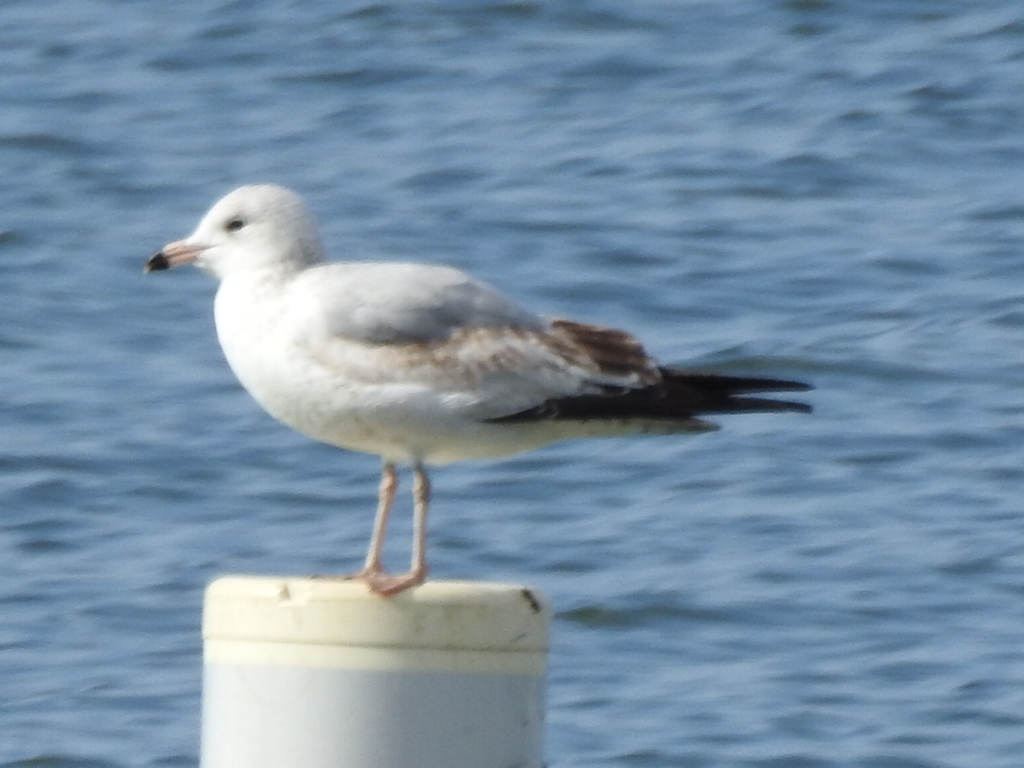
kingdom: Animalia
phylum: Chordata
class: Aves
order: Charadriiformes
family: Laridae
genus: Larus
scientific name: Larus delawarensis
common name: Ring-billed gull
